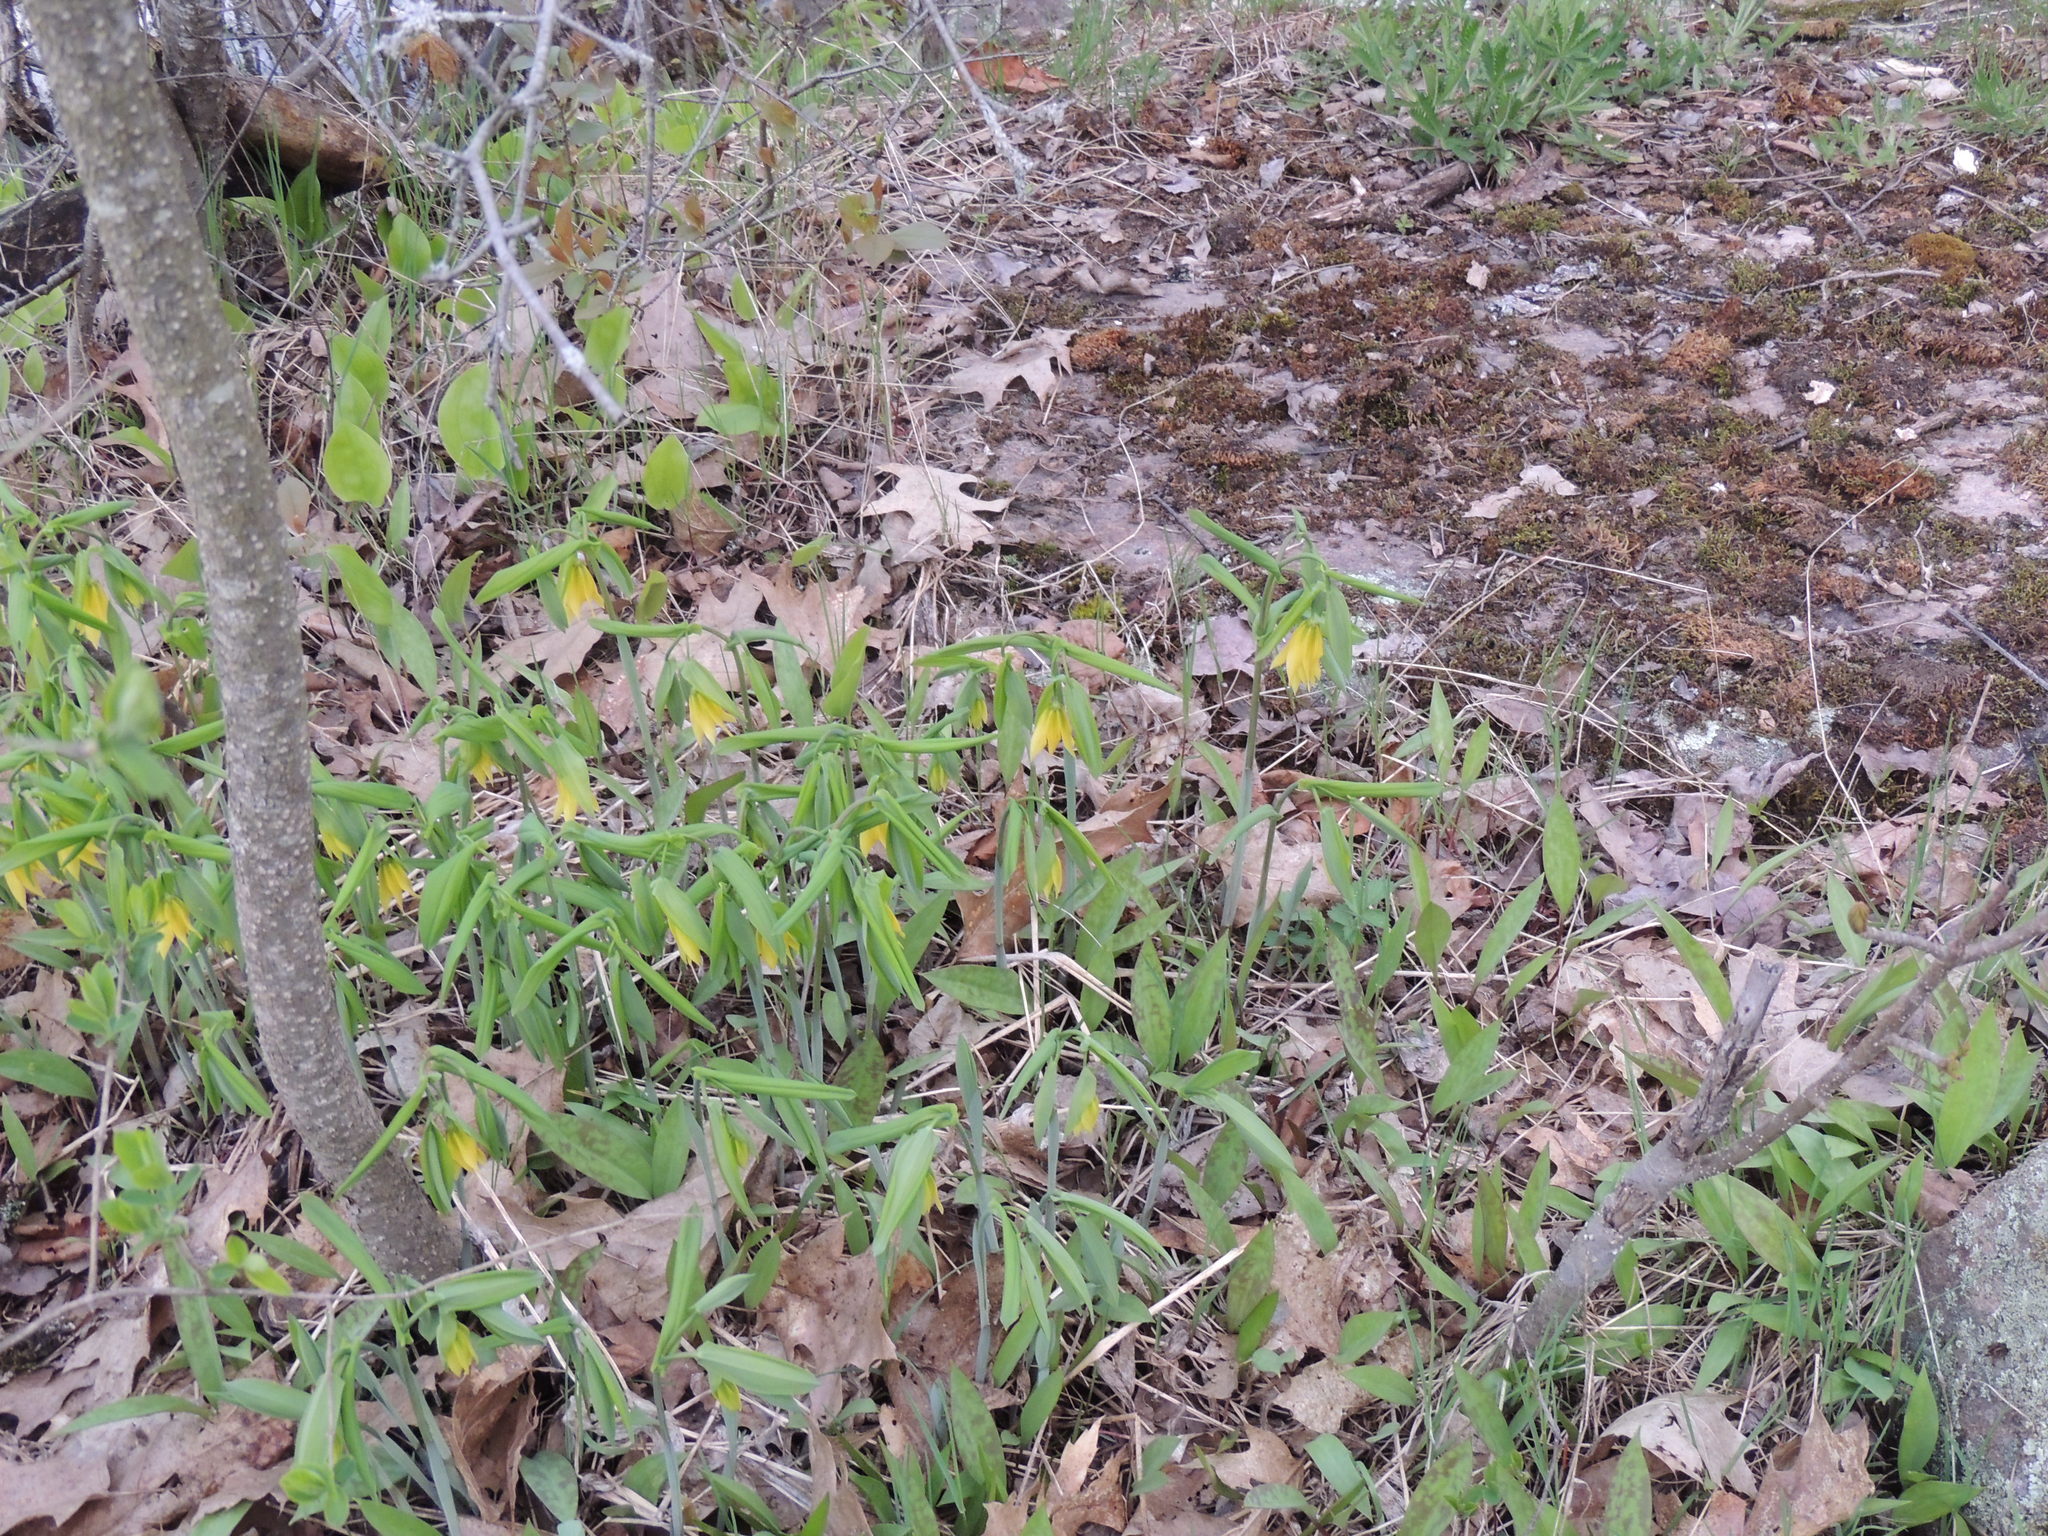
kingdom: Plantae
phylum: Tracheophyta
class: Liliopsida
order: Liliales
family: Colchicaceae
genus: Uvularia
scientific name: Uvularia grandiflora
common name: Bellwort
